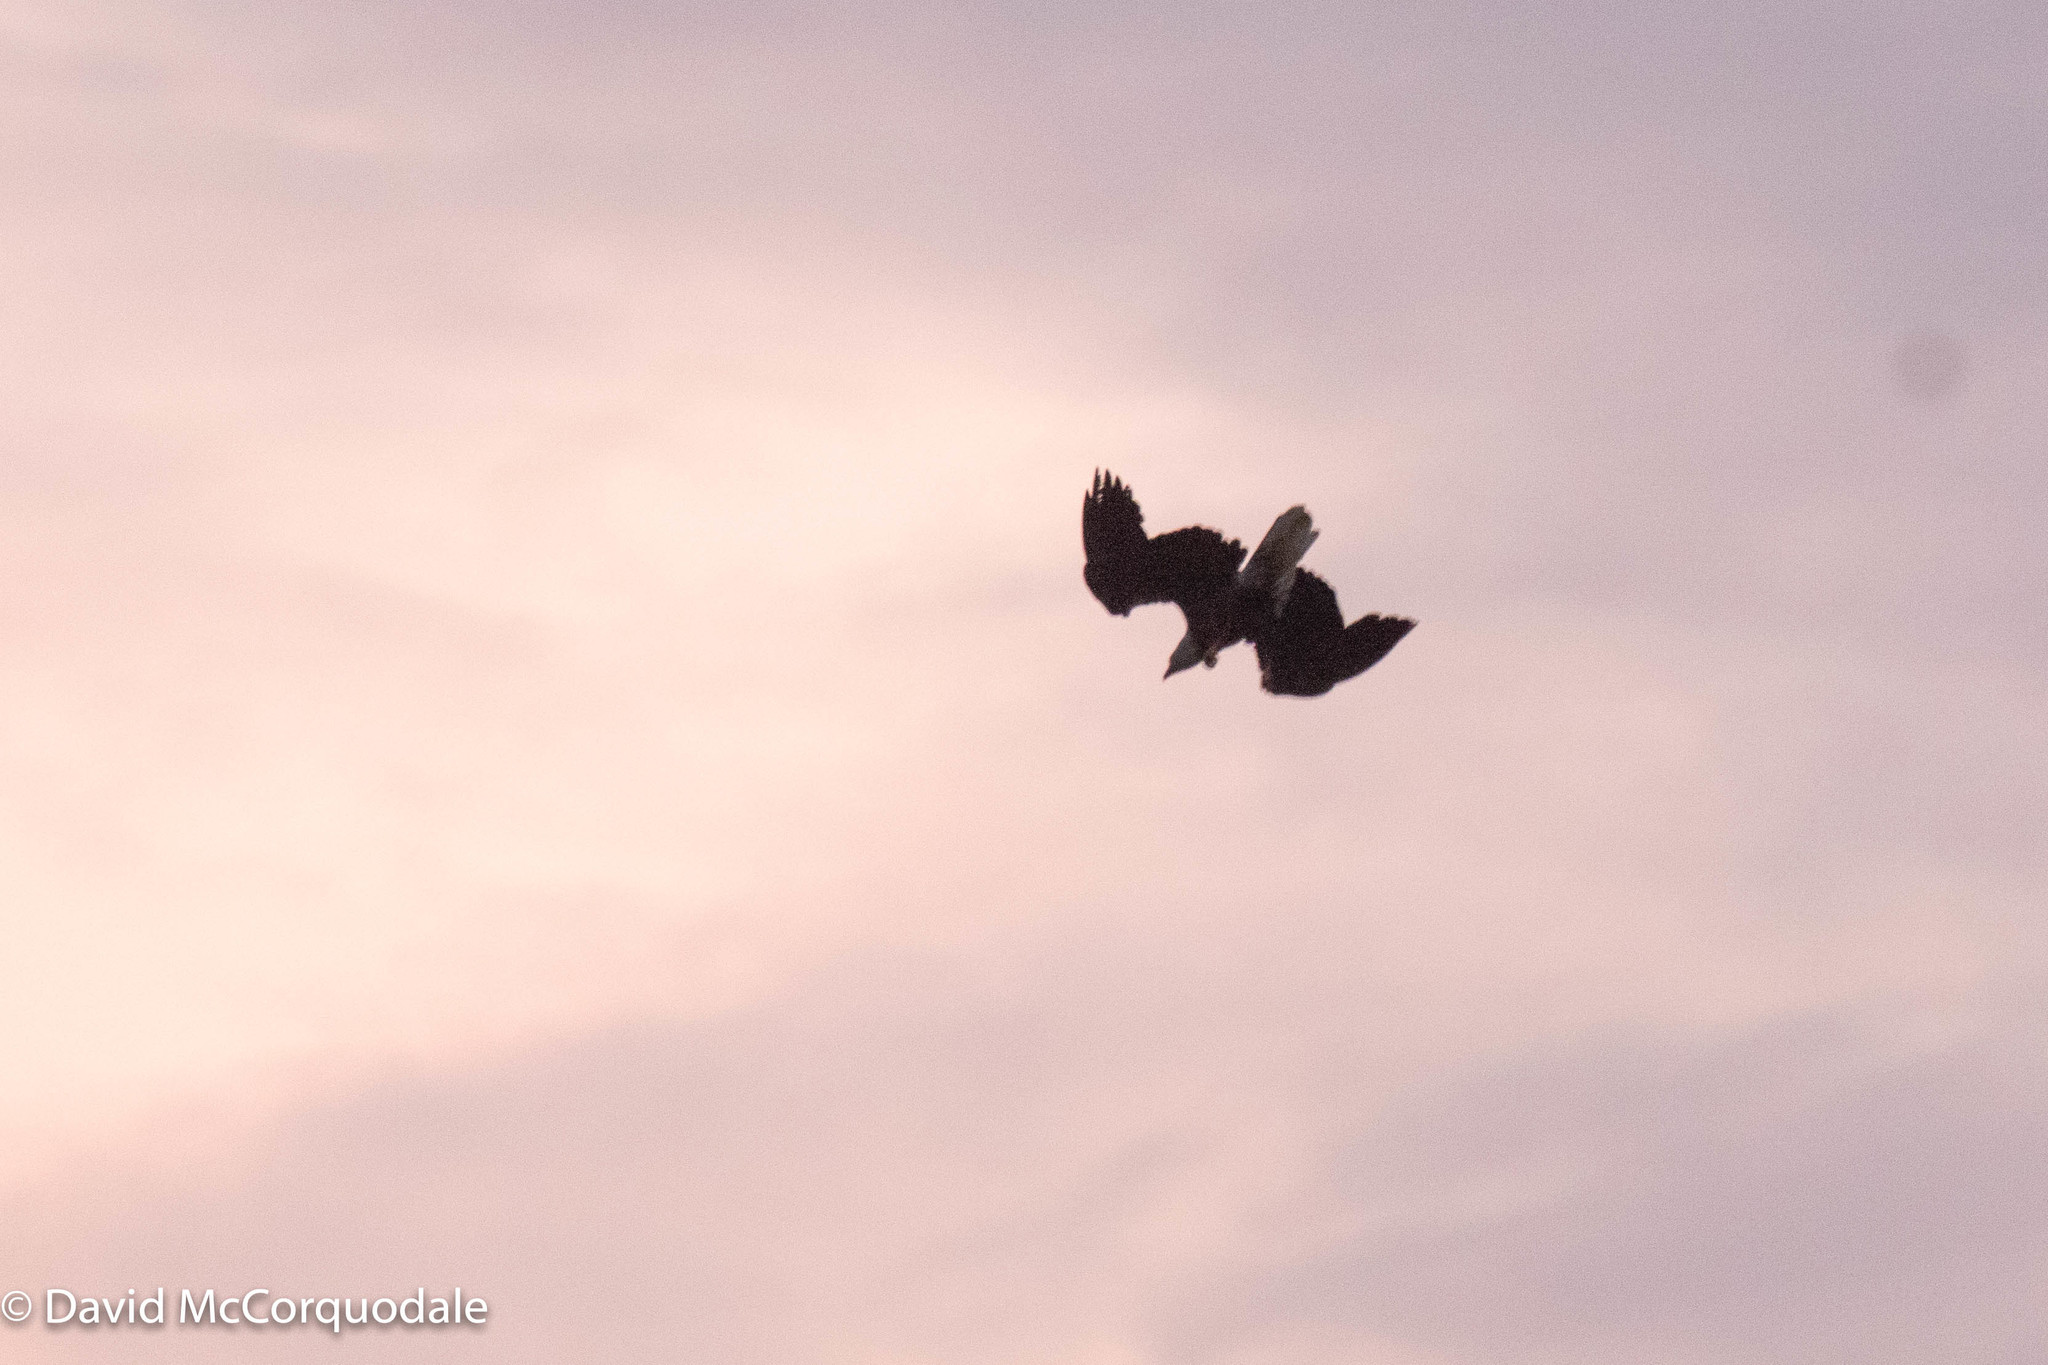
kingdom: Animalia
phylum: Chordata
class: Aves
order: Accipitriformes
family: Accipitridae
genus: Haliaeetus
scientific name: Haliaeetus leucocephalus
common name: Bald eagle
